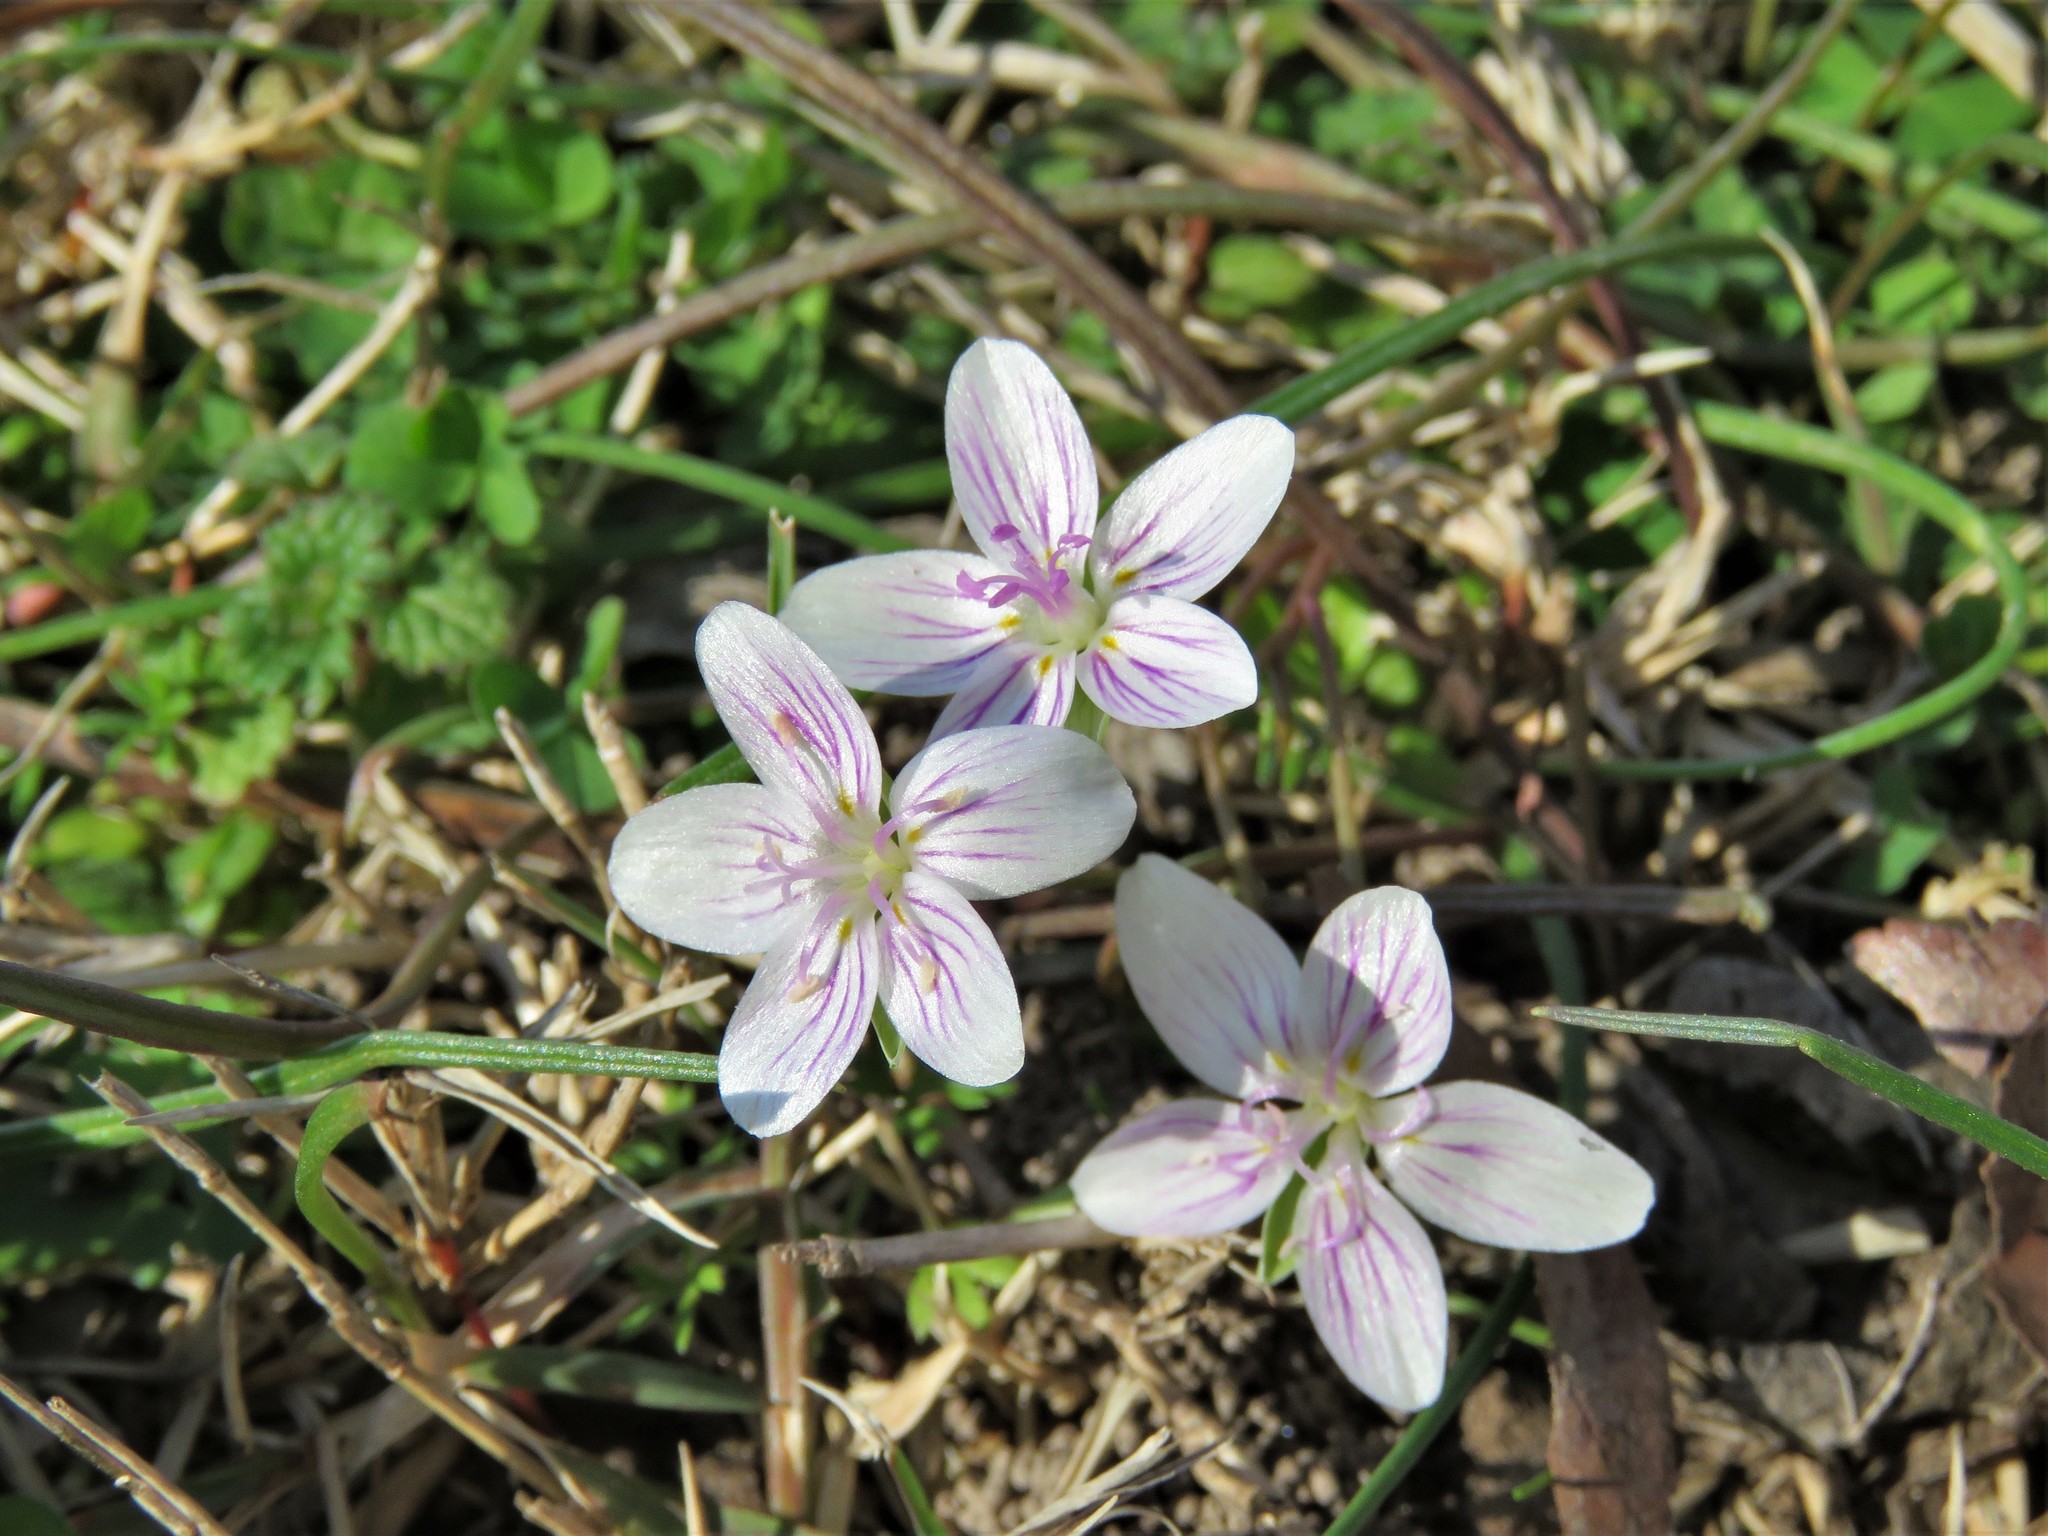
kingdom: Plantae
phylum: Tracheophyta
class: Magnoliopsida
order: Caryophyllales
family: Montiaceae
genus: Claytonia
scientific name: Claytonia virginica
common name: Virginia springbeauty
